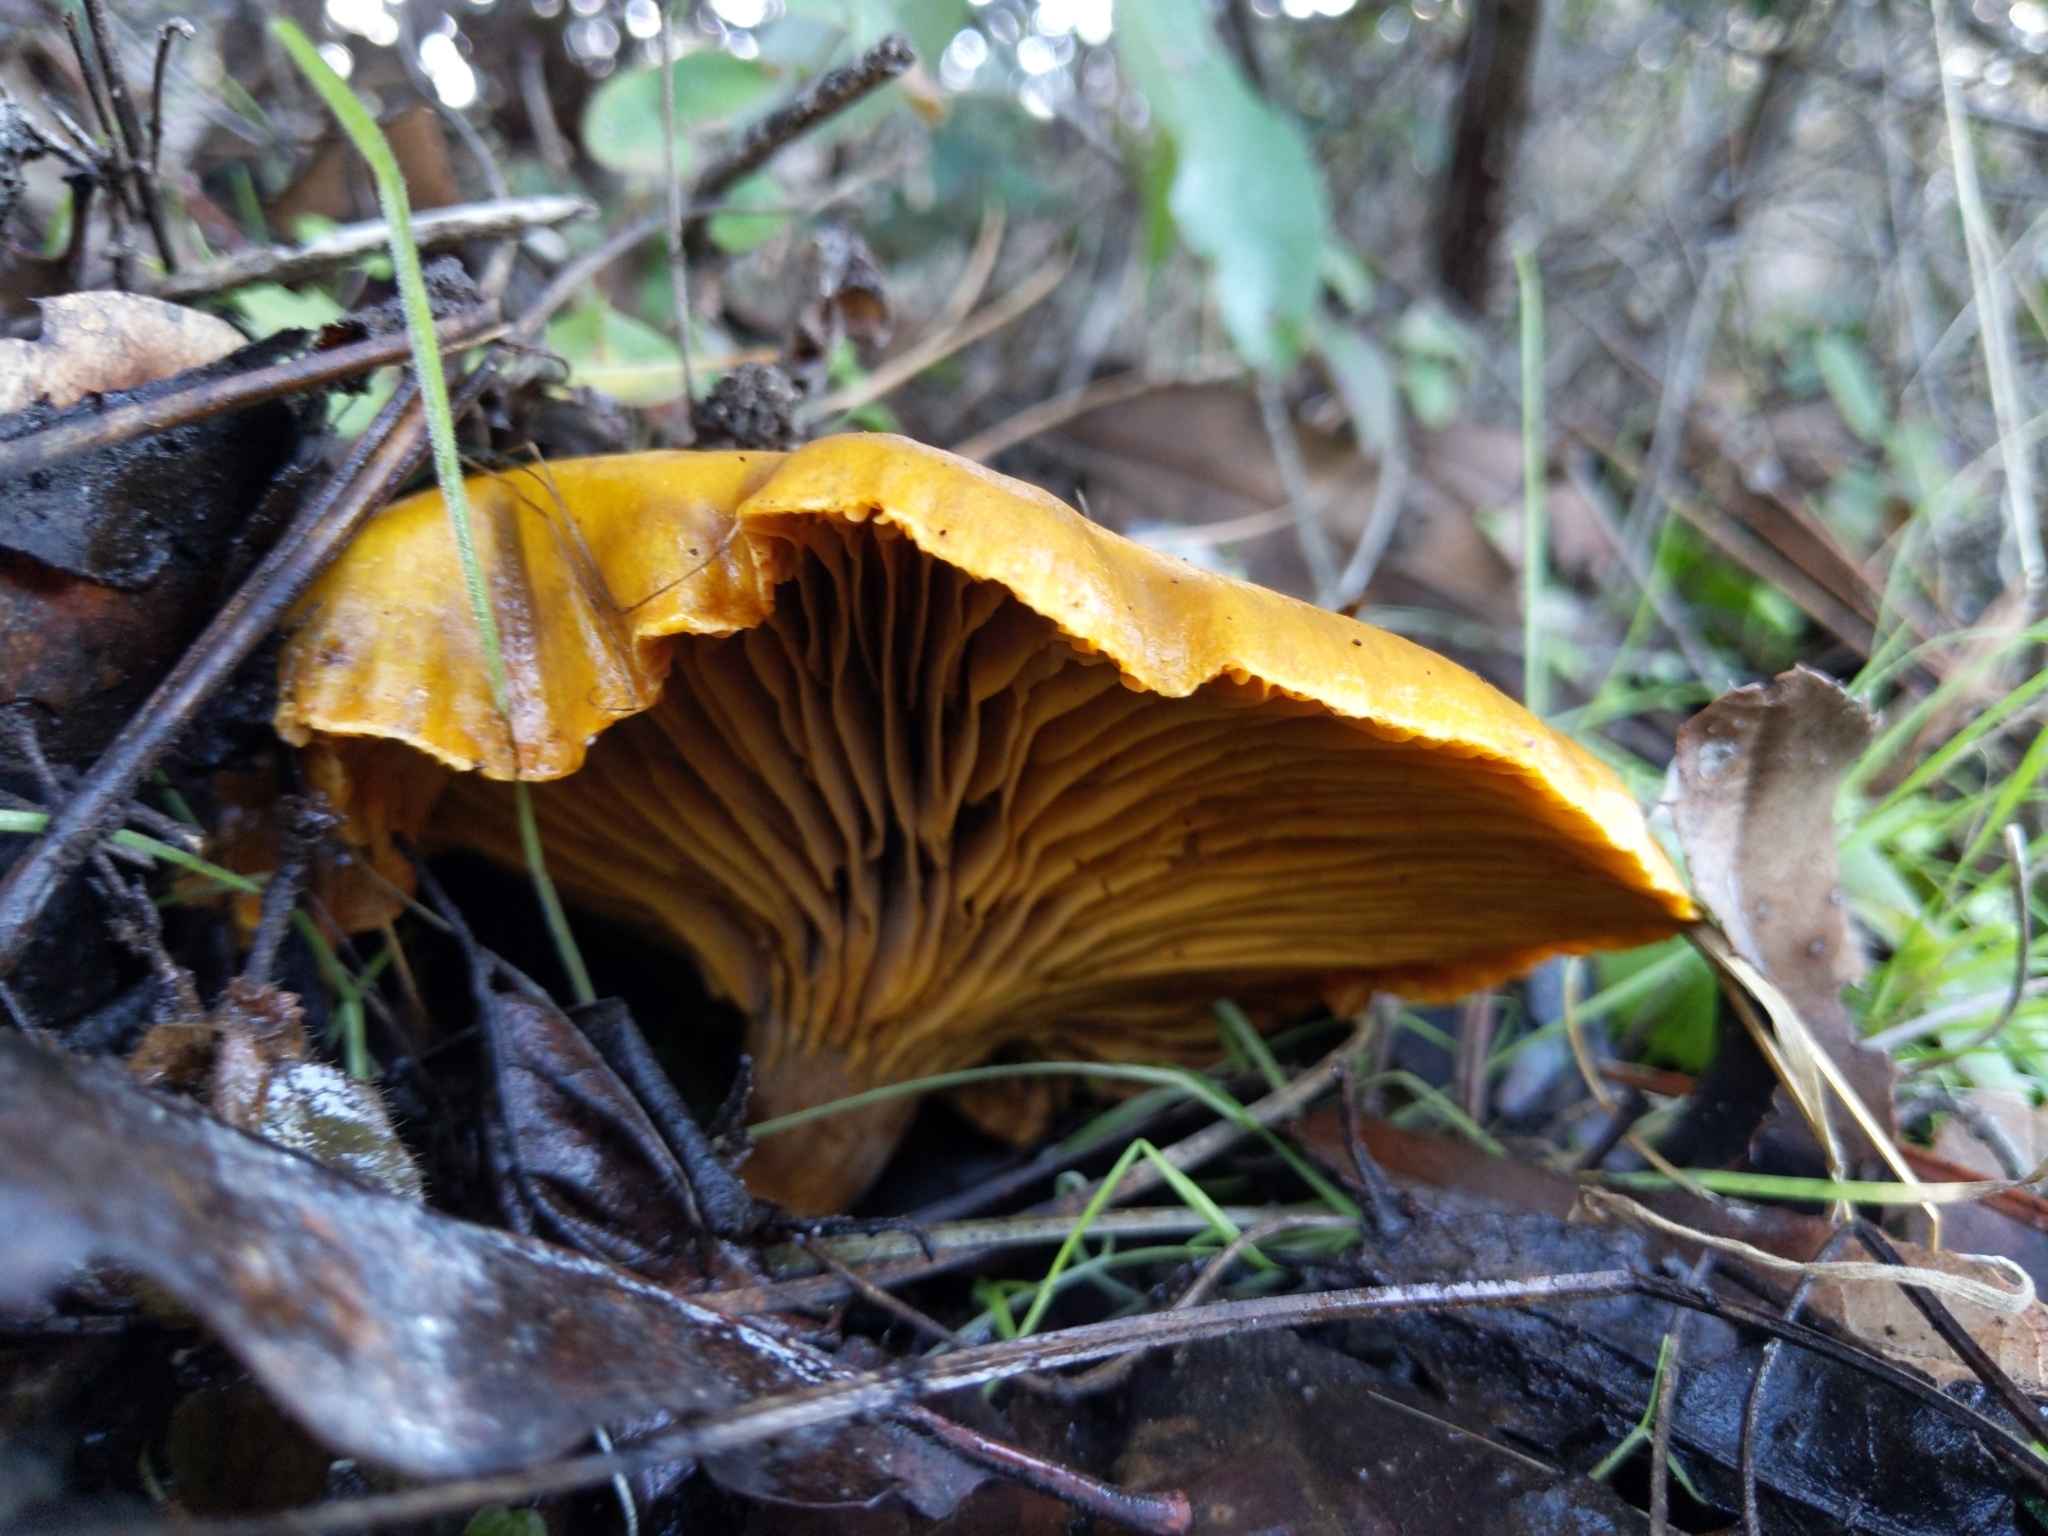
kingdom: Fungi
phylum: Basidiomycota
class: Agaricomycetes
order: Agaricales
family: Omphalotaceae
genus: Omphalotus
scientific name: Omphalotus olivascens
